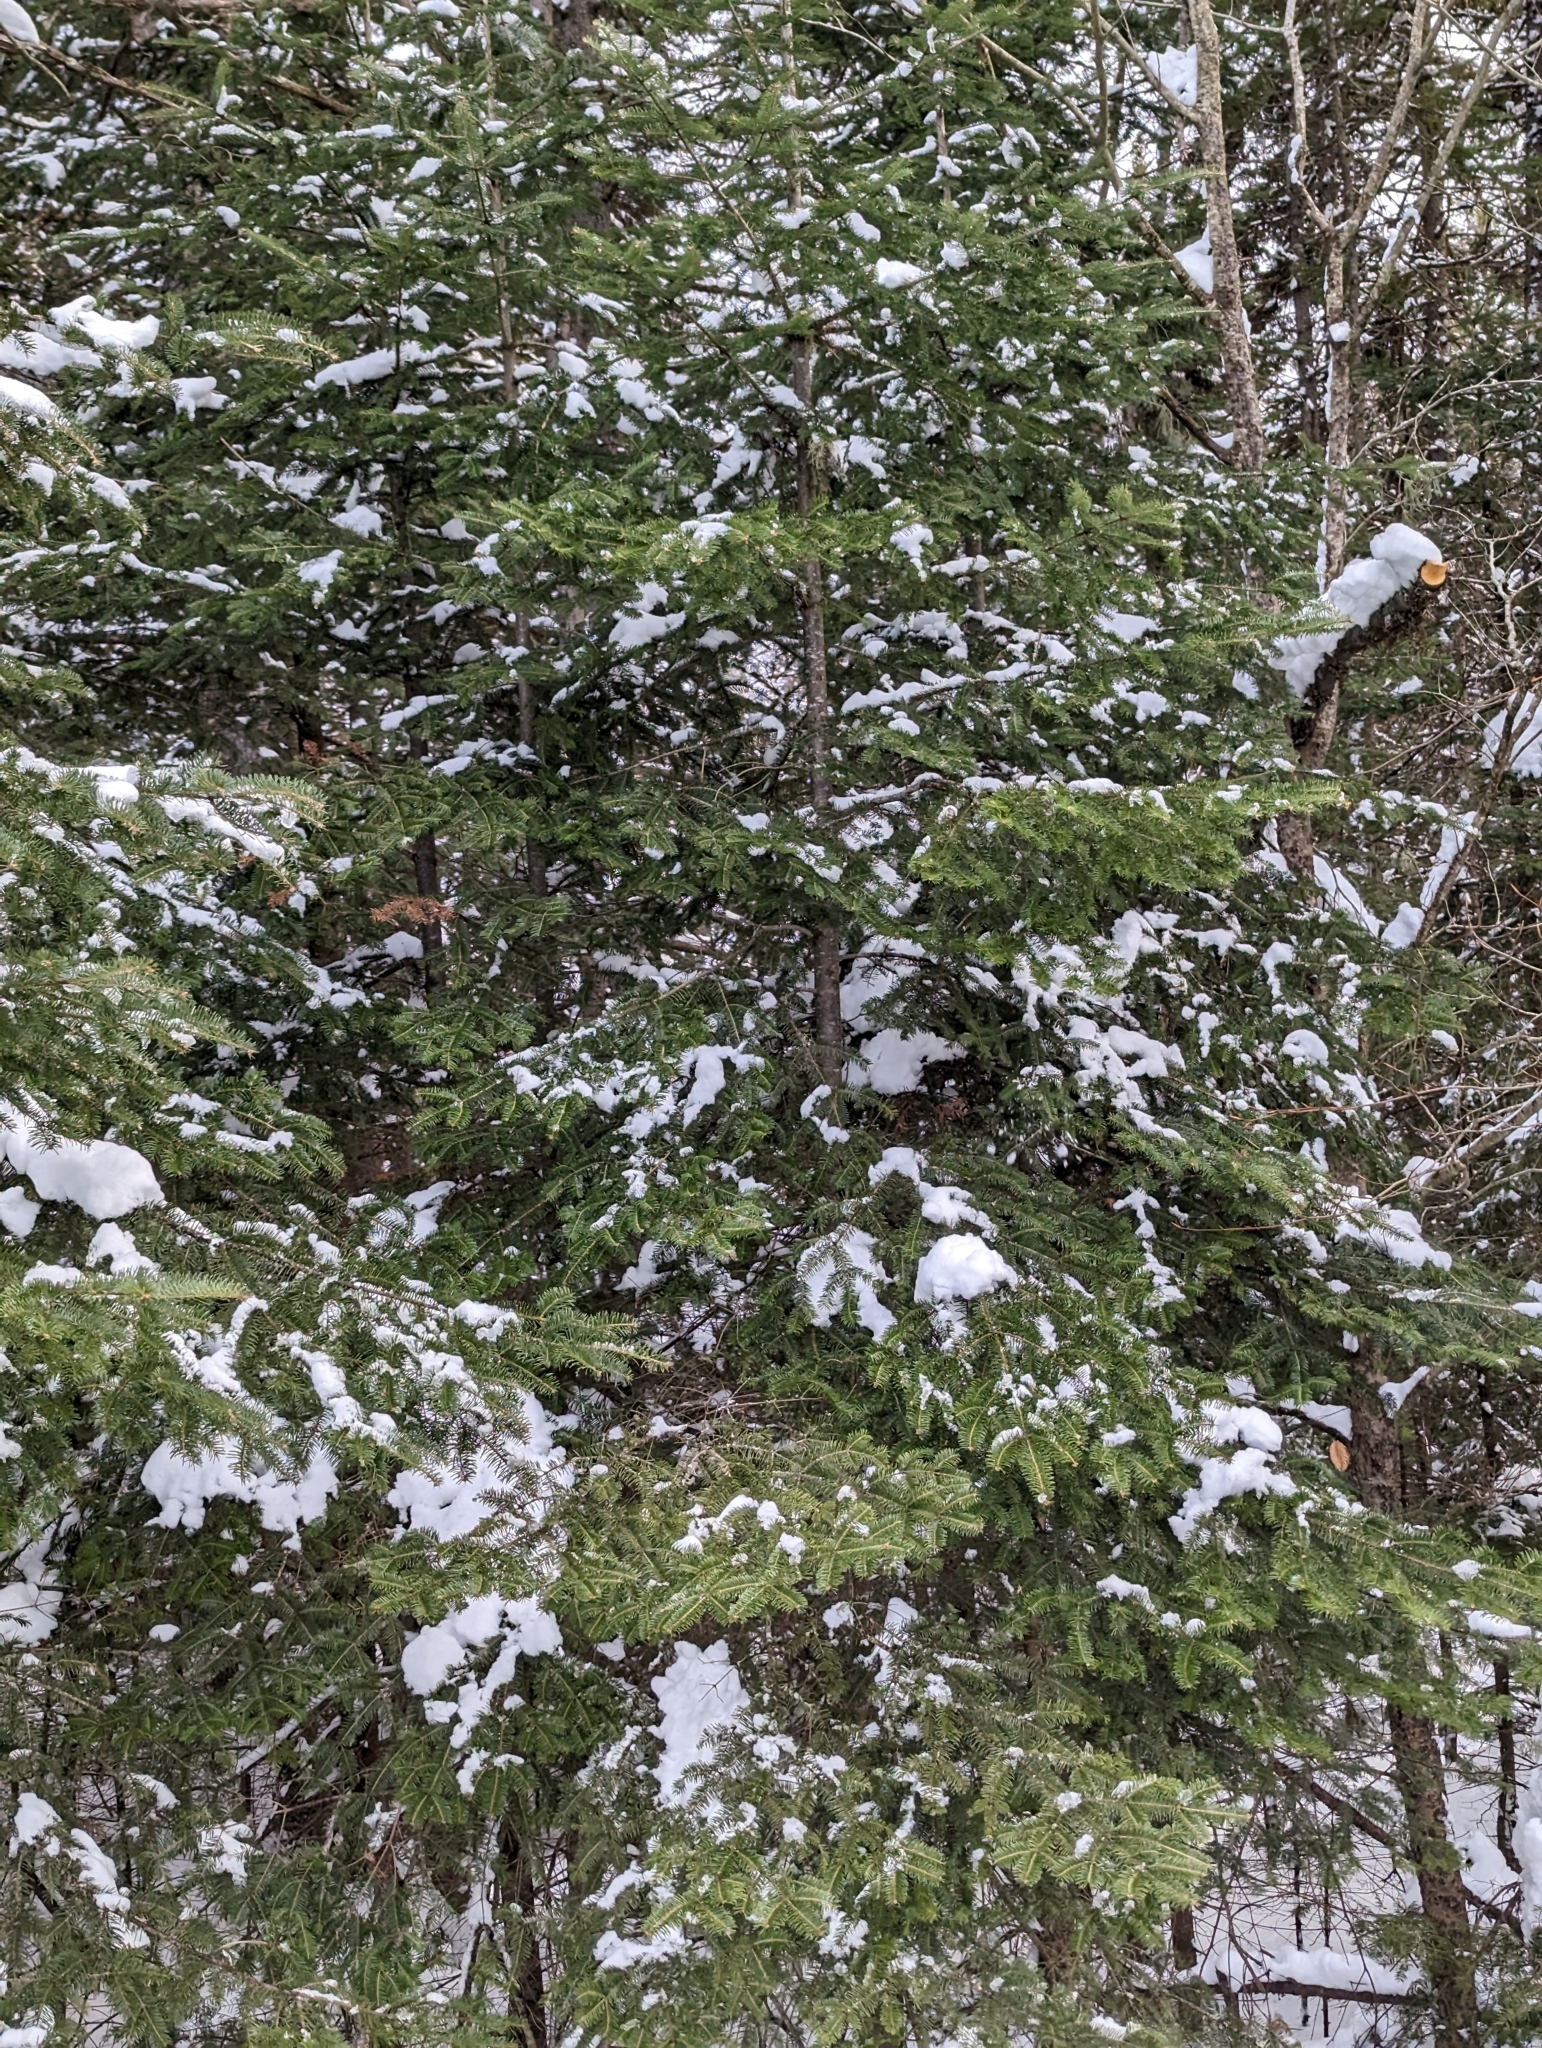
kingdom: Plantae
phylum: Tracheophyta
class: Pinopsida
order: Pinales
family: Pinaceae
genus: Abies
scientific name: Abies balsamea
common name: Balsam fir
